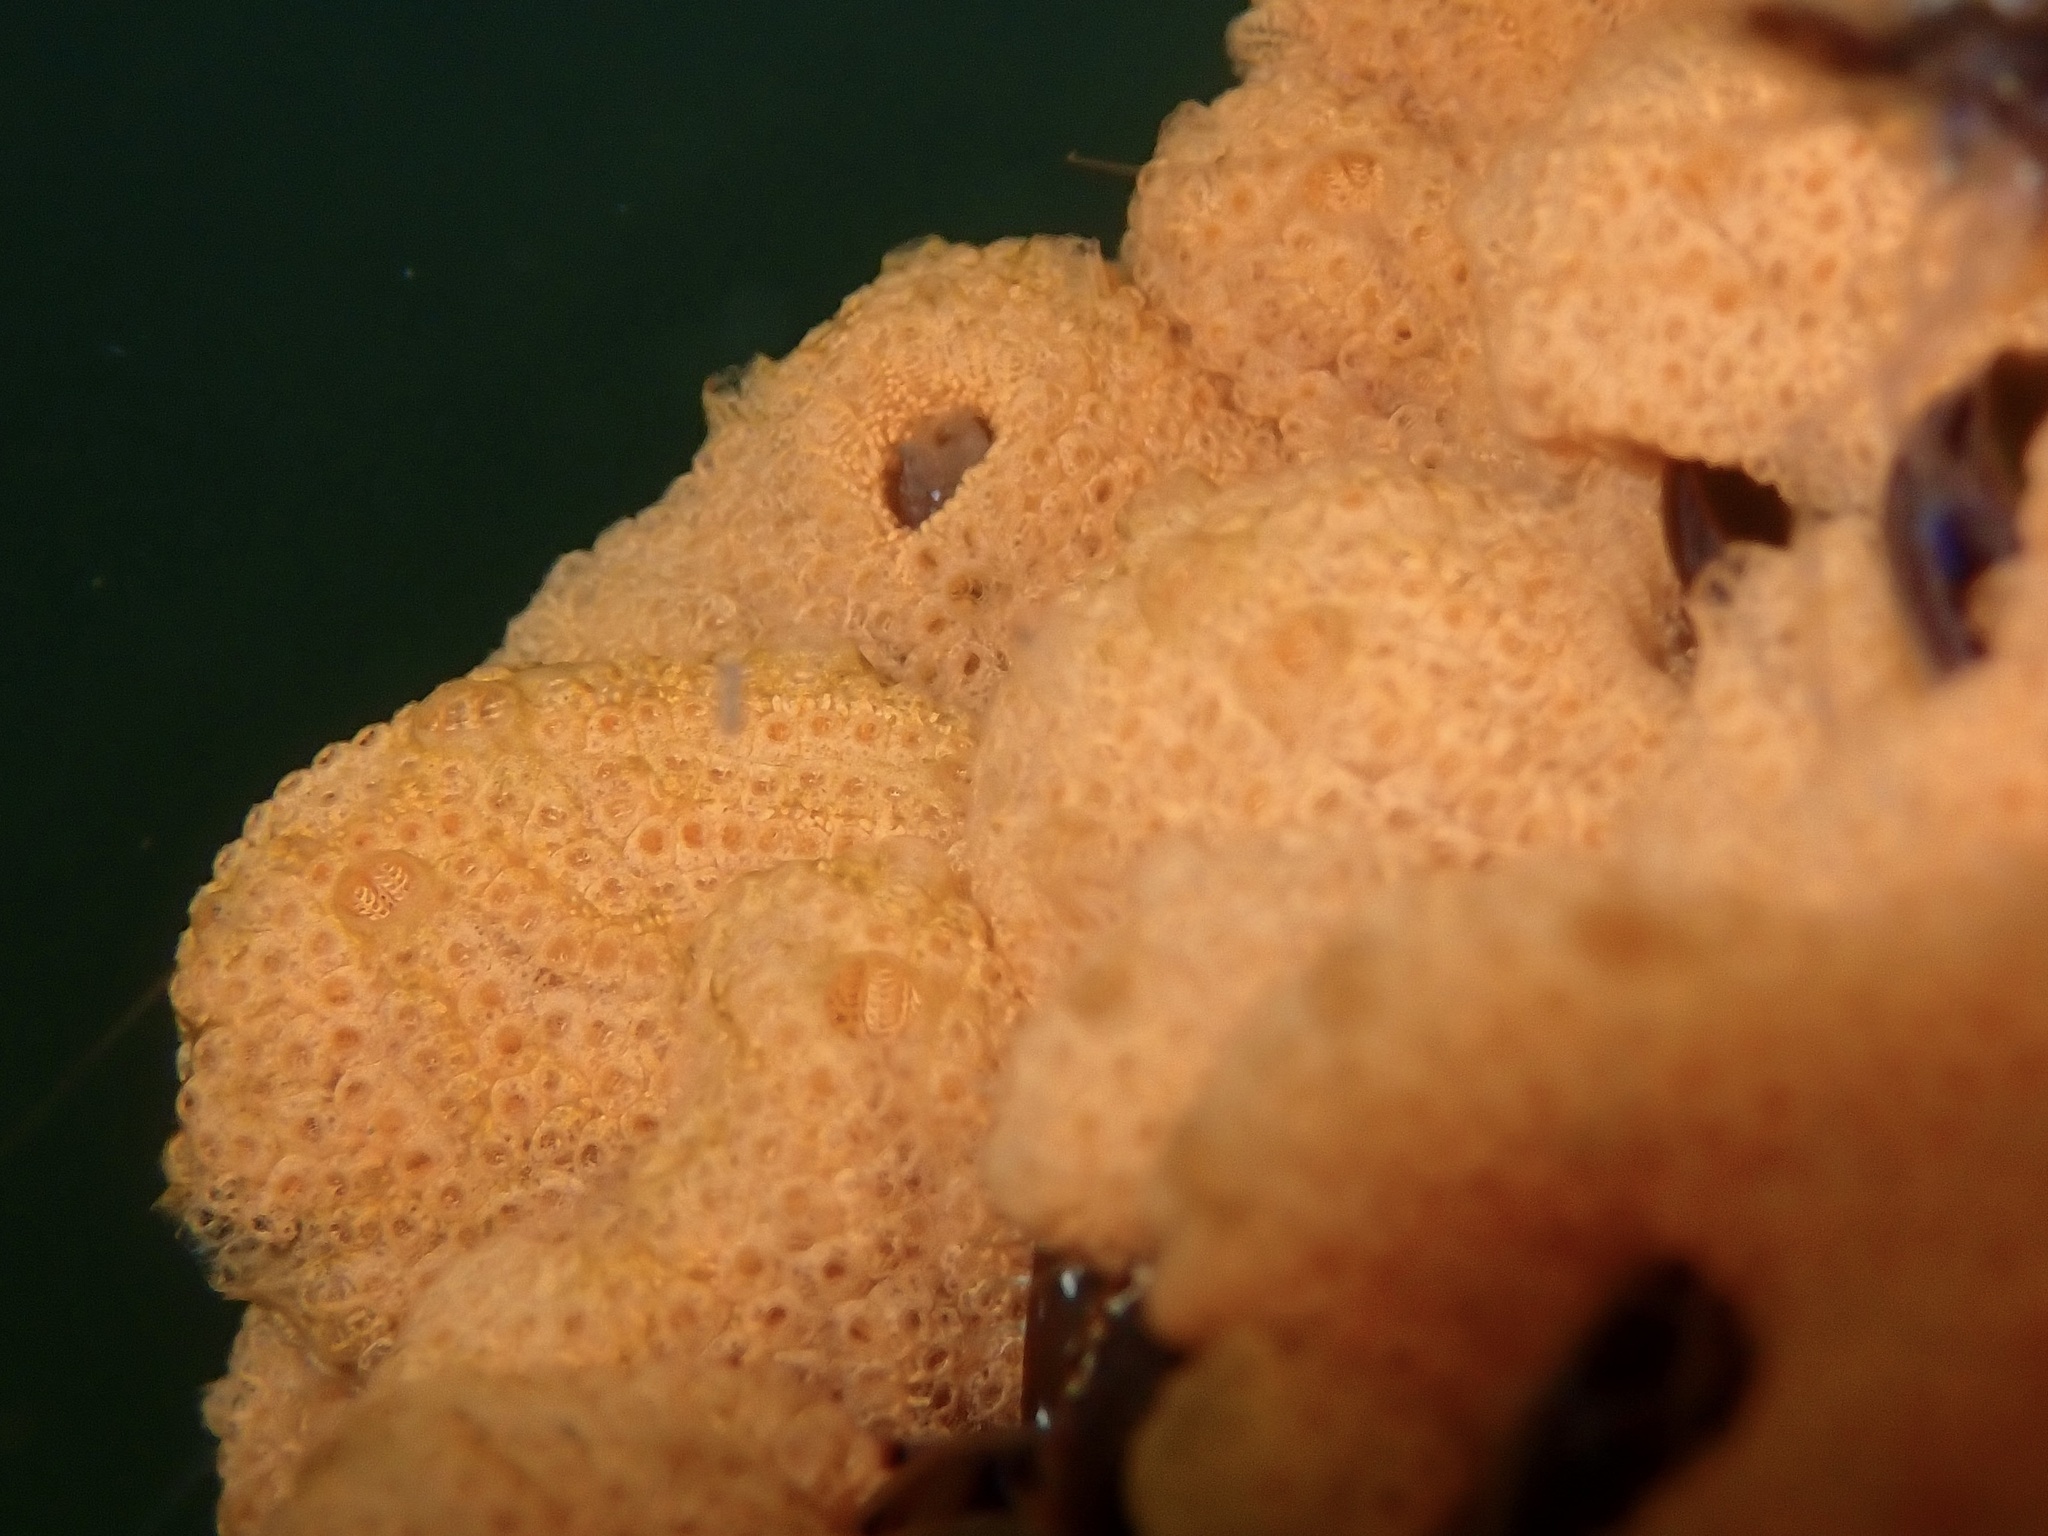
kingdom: Animalia
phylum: Chordata
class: Ascidiacea
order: Stolidobranchia
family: Styelidae
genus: Botrylloides
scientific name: Botrylloides violaceus
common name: Colonial sea squirt
